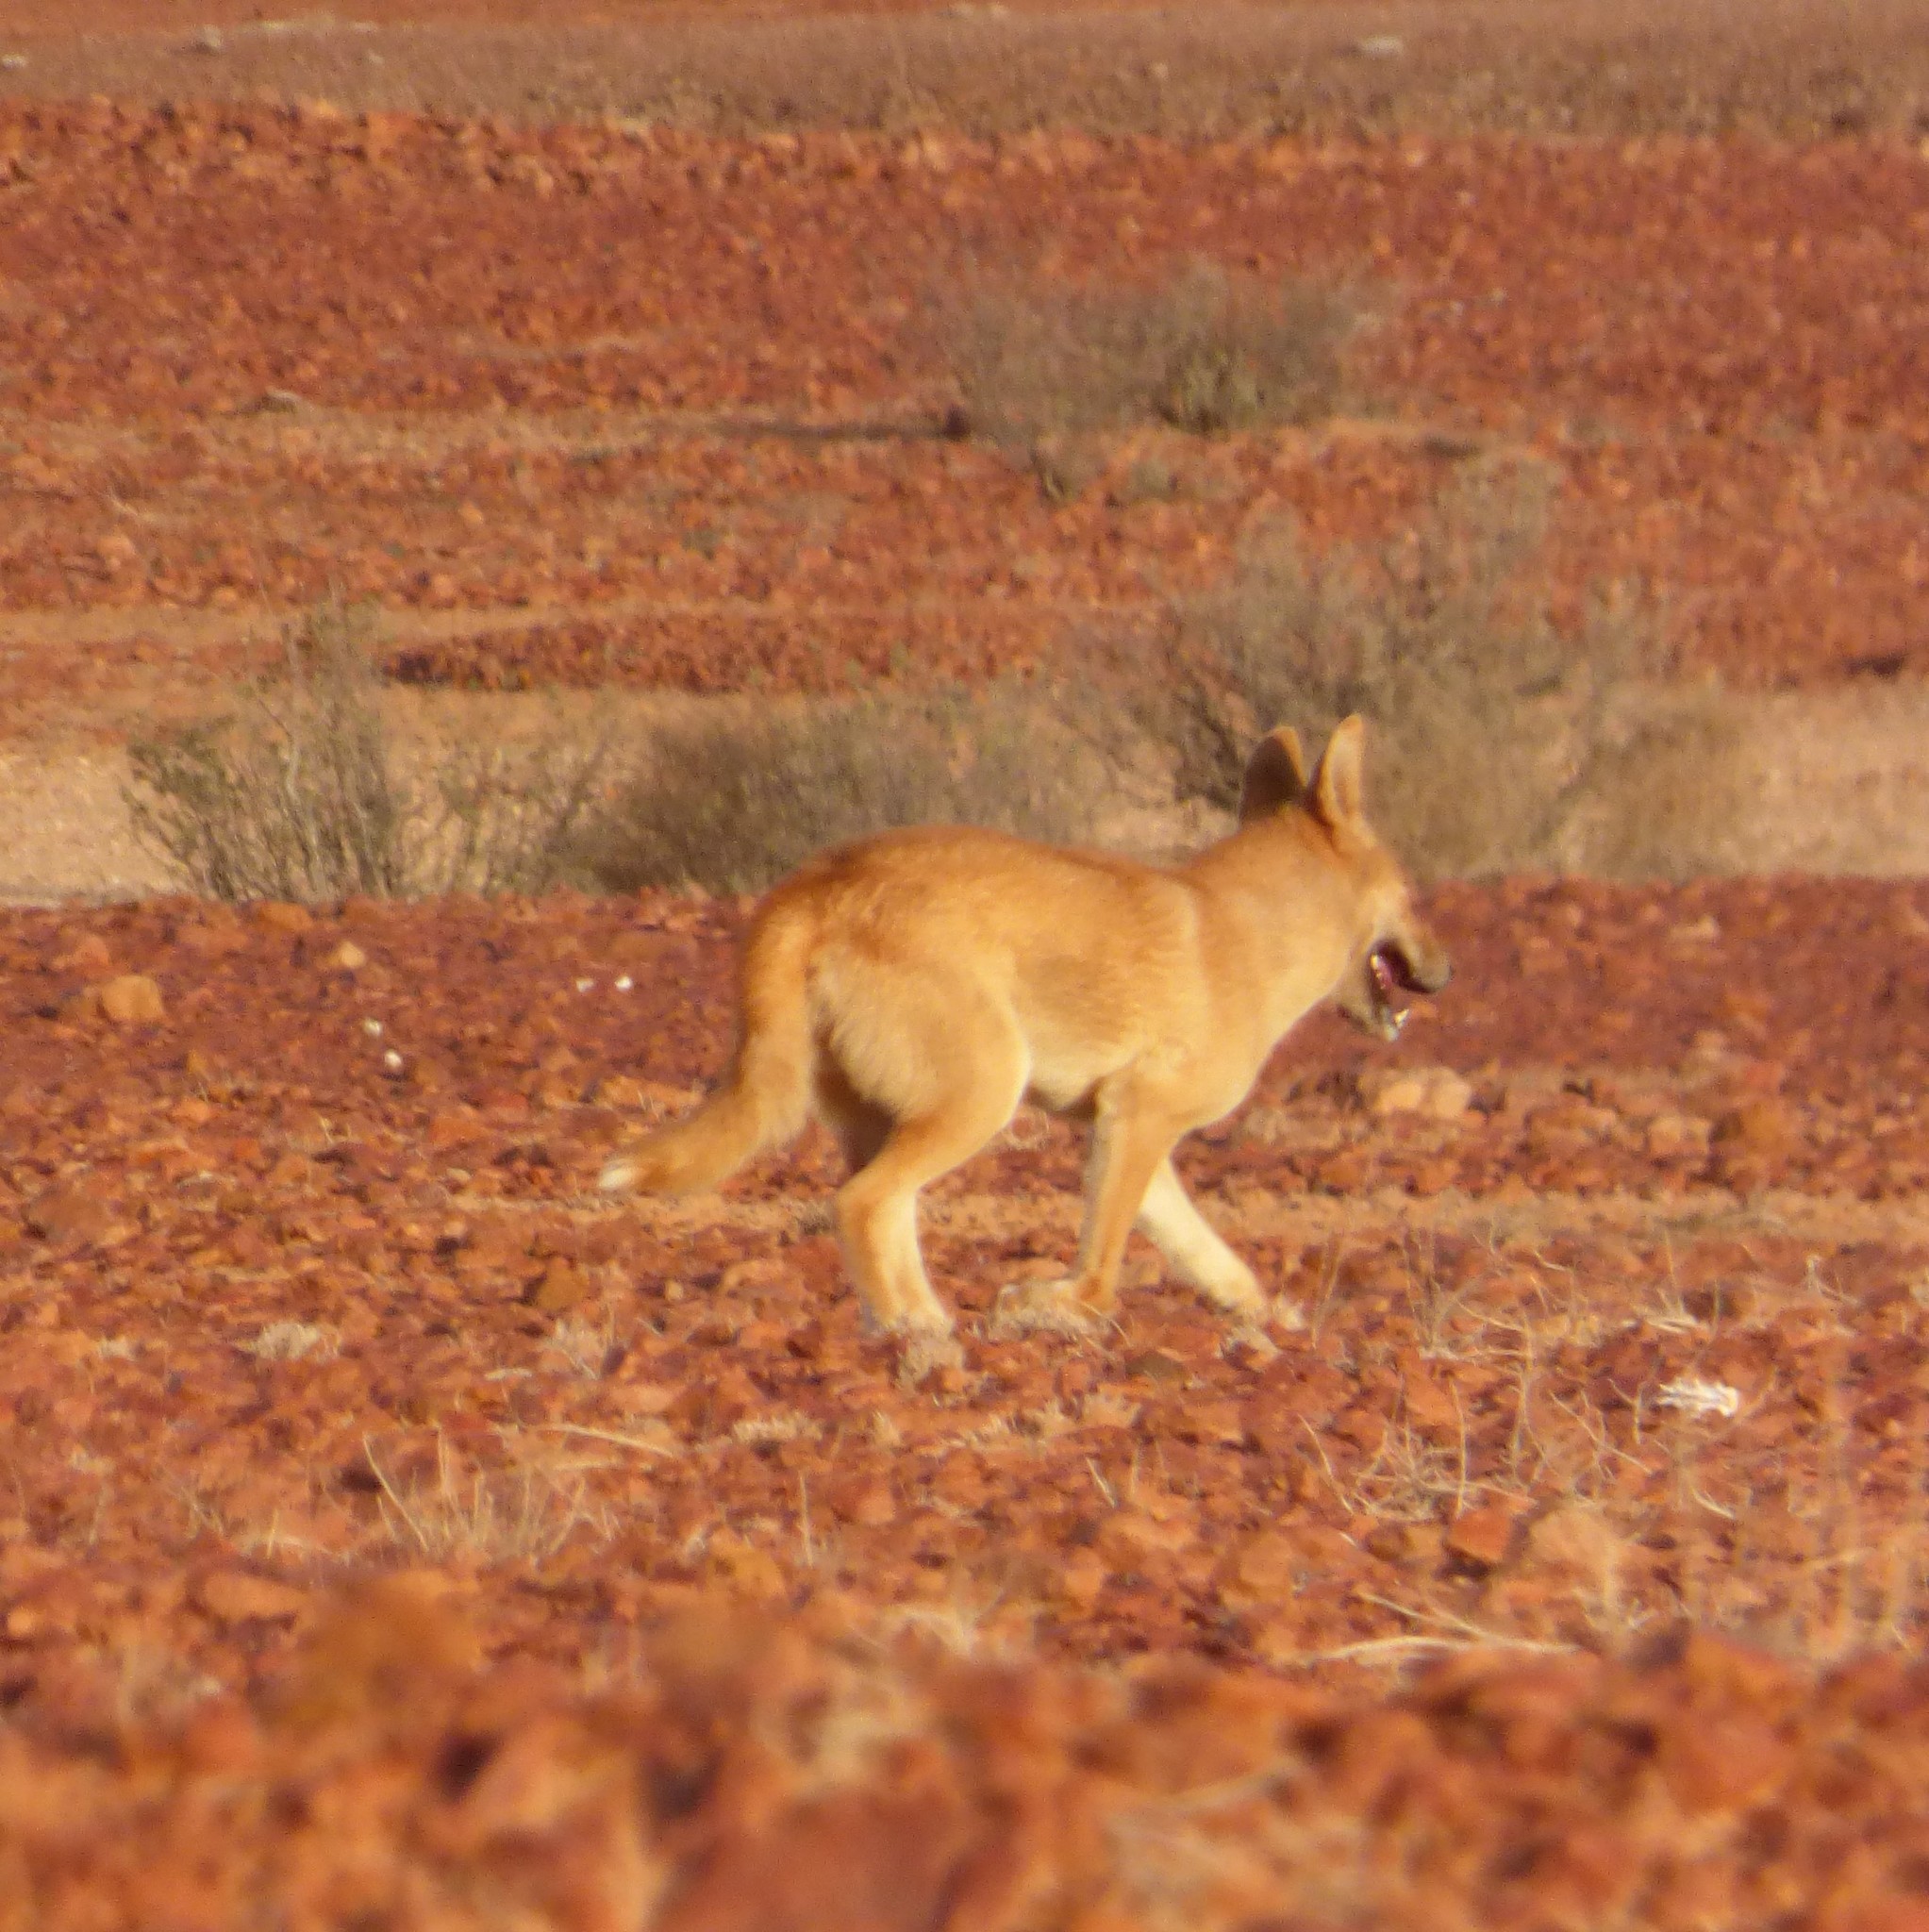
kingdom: Animalia
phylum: Chordata
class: Mammalia
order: Carnivora
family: Canidae
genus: Canis
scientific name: Canis lupus
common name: Gray wolf
